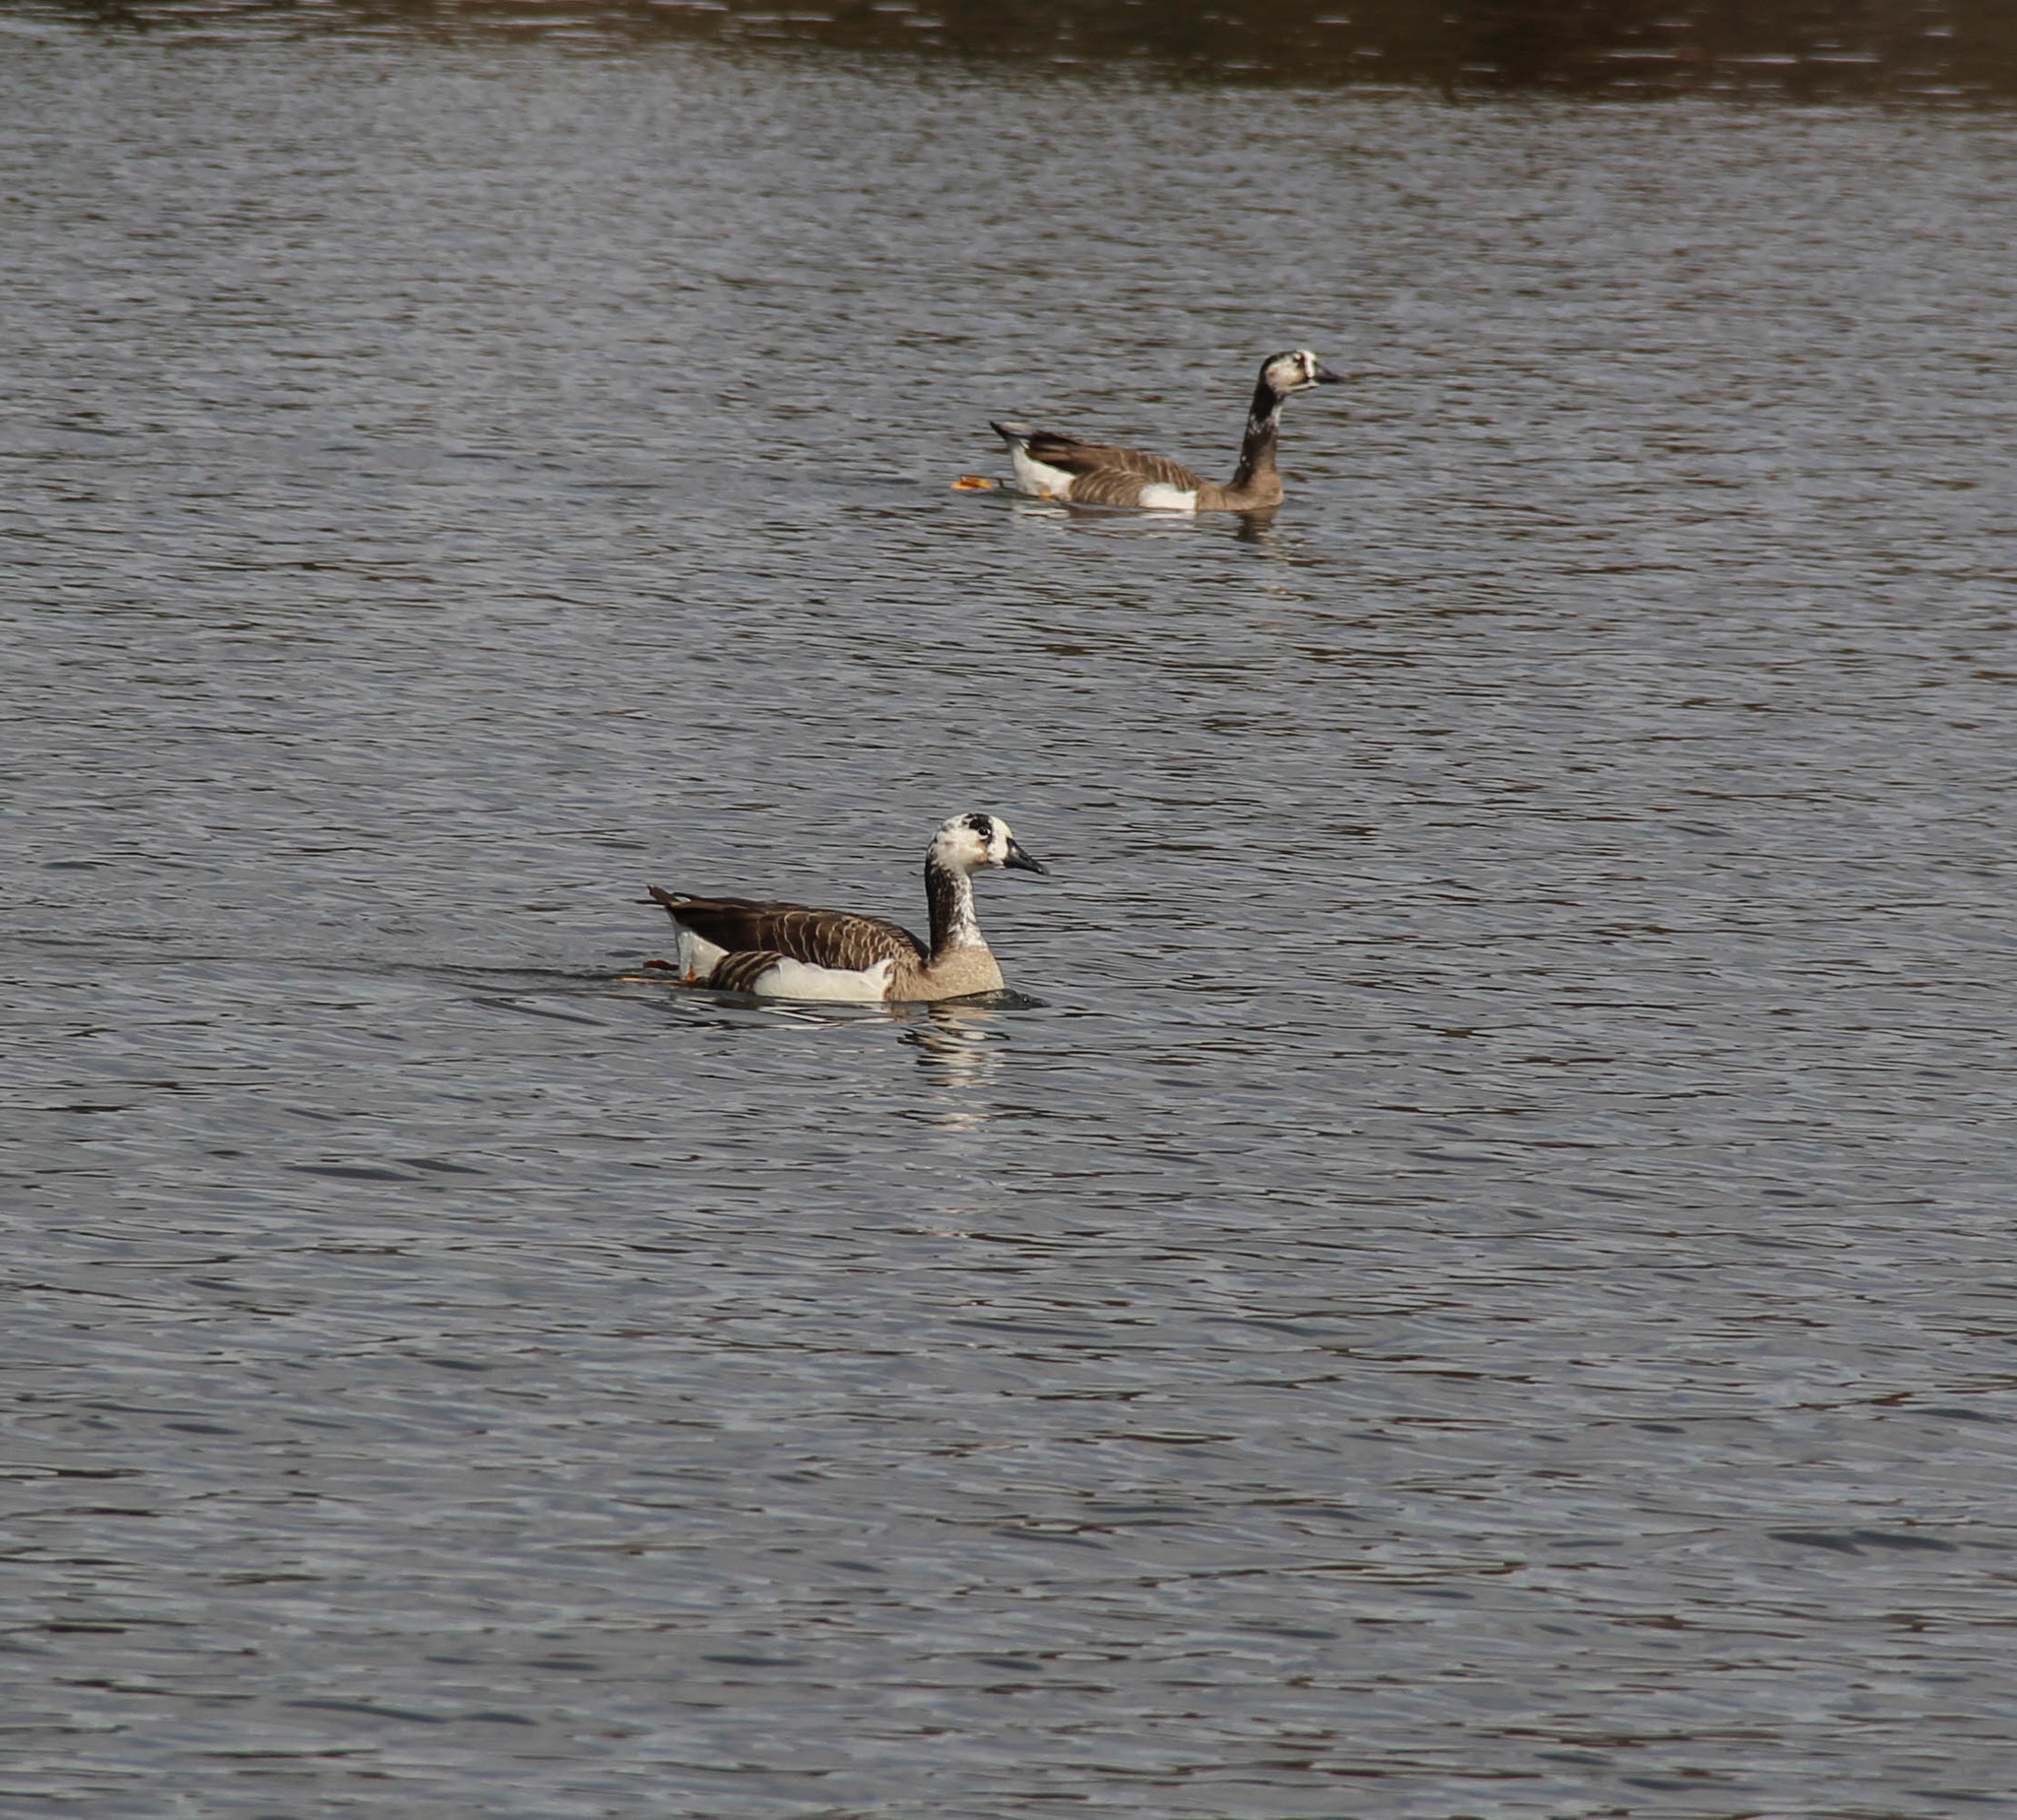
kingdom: Animalia
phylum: Chordata
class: Aves
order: Anseriformes
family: Anatidae
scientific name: Anatidae
